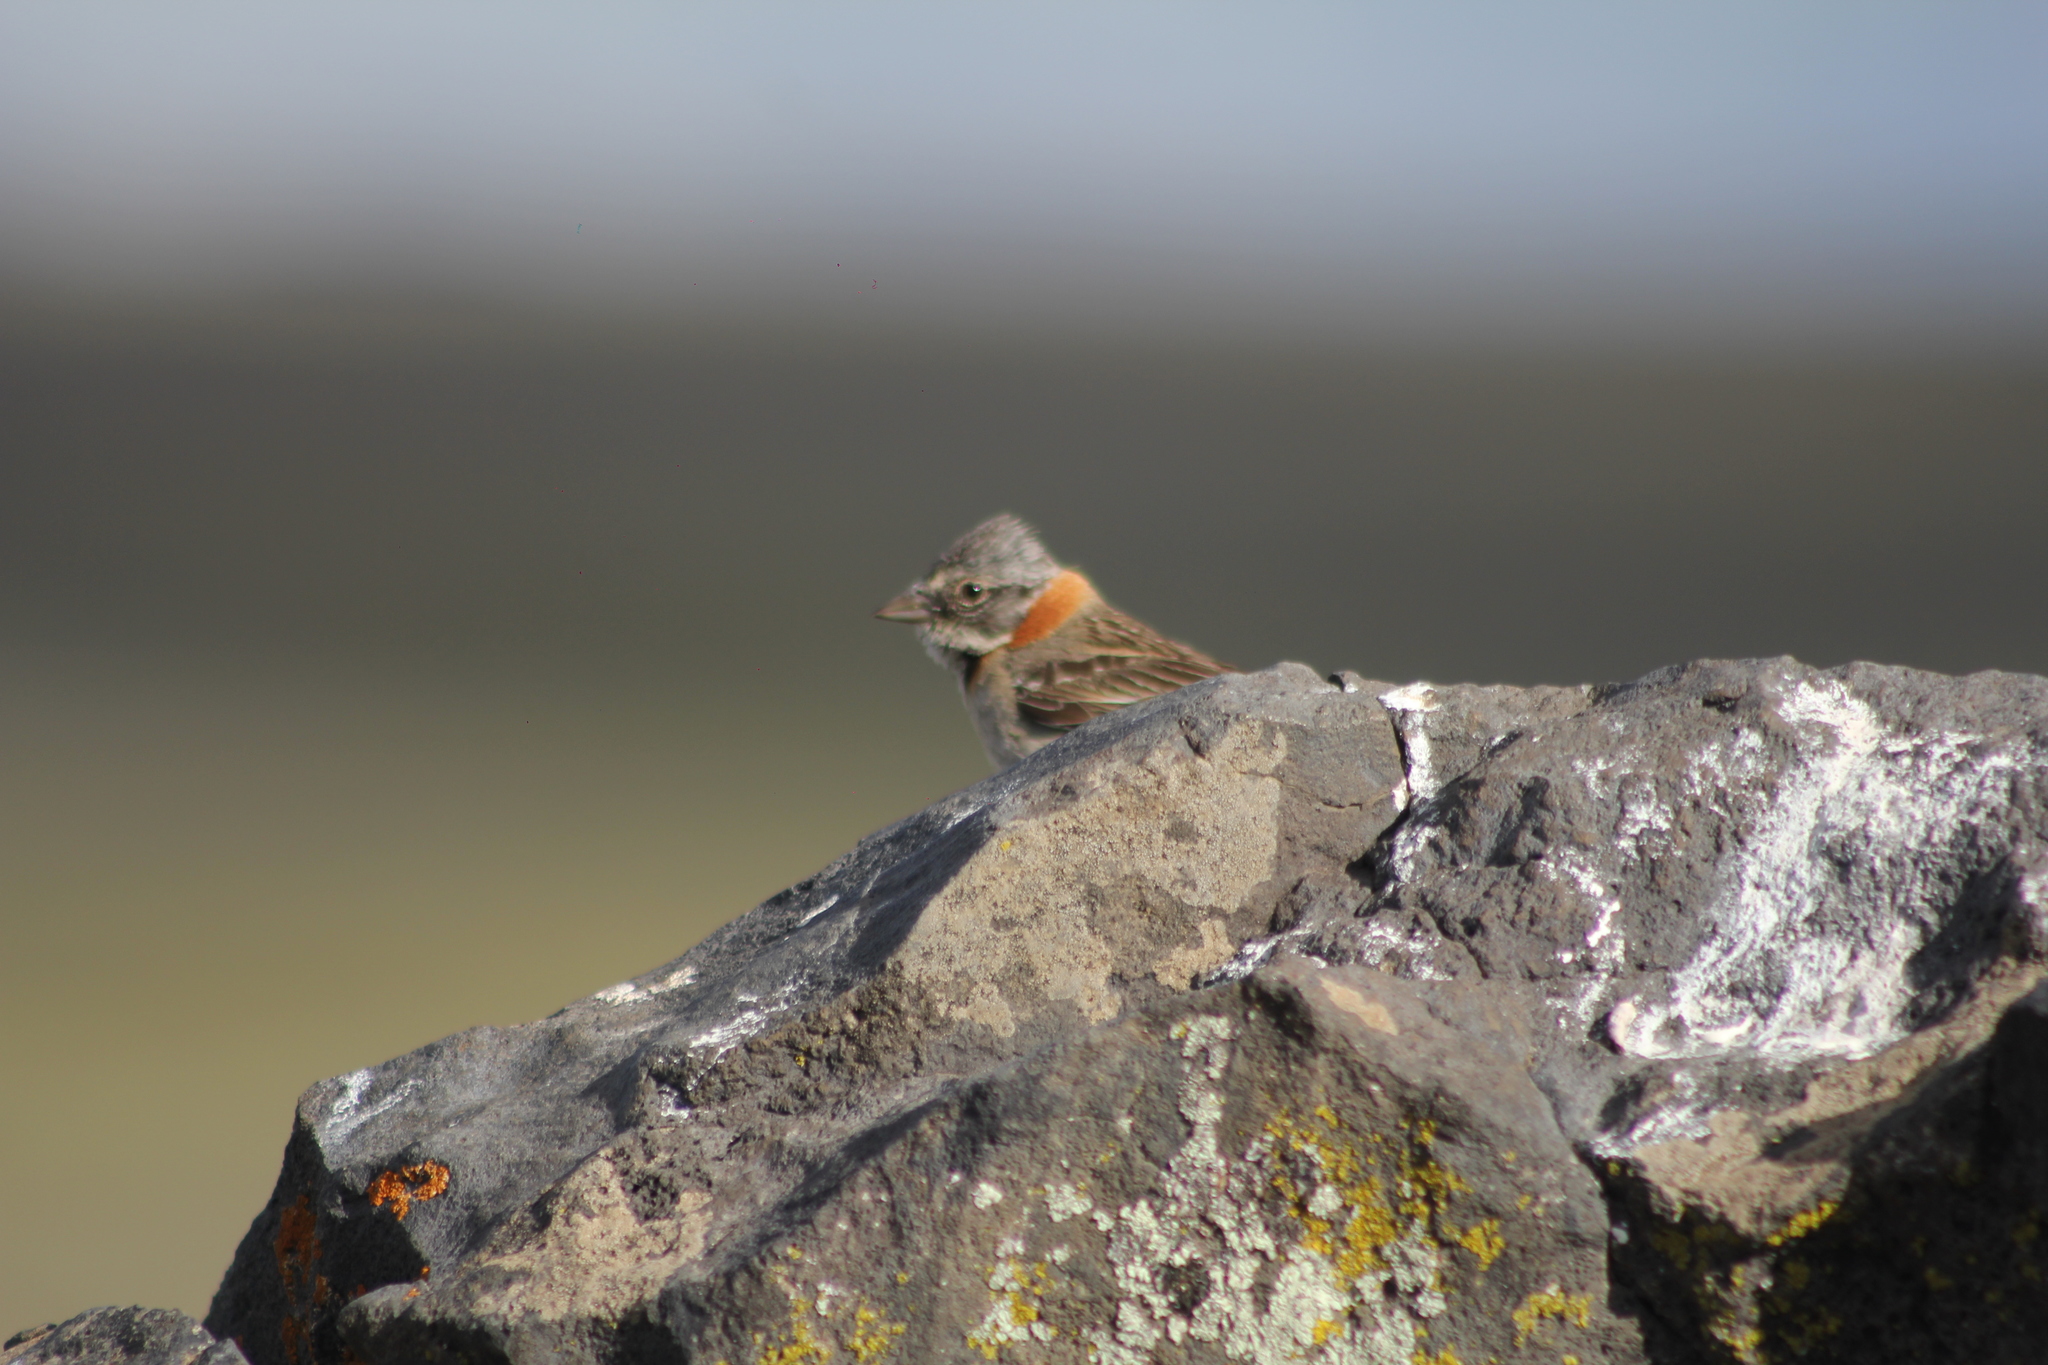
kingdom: Animalia
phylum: Chordata
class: Aves
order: Passeriformes
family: Passerellidae
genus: Zonotrichia
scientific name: Zonotrichia capensis
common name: Rufous-collared sparrow
